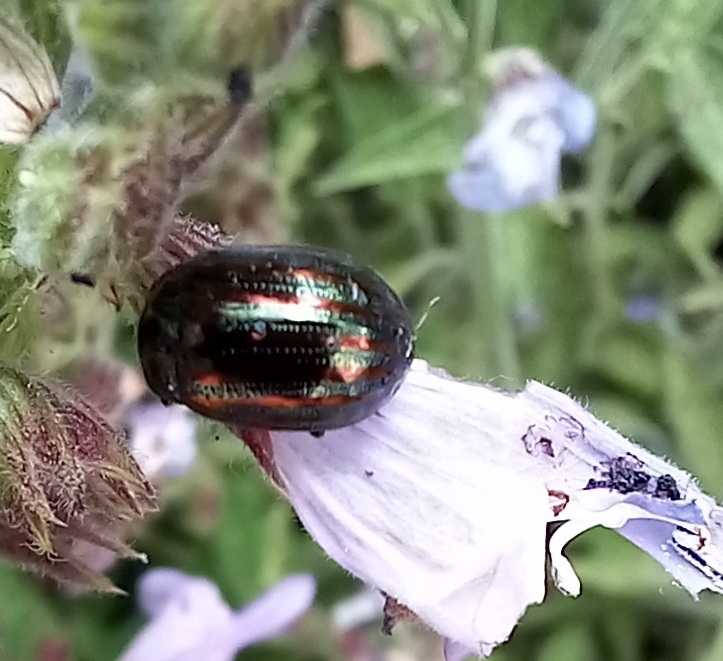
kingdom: Animalia
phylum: Arthropoda
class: Insecta
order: Coleoptera
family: Chrysomelidae
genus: Chrysolina
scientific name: Chrysolina americana
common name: Rosemary beetle
